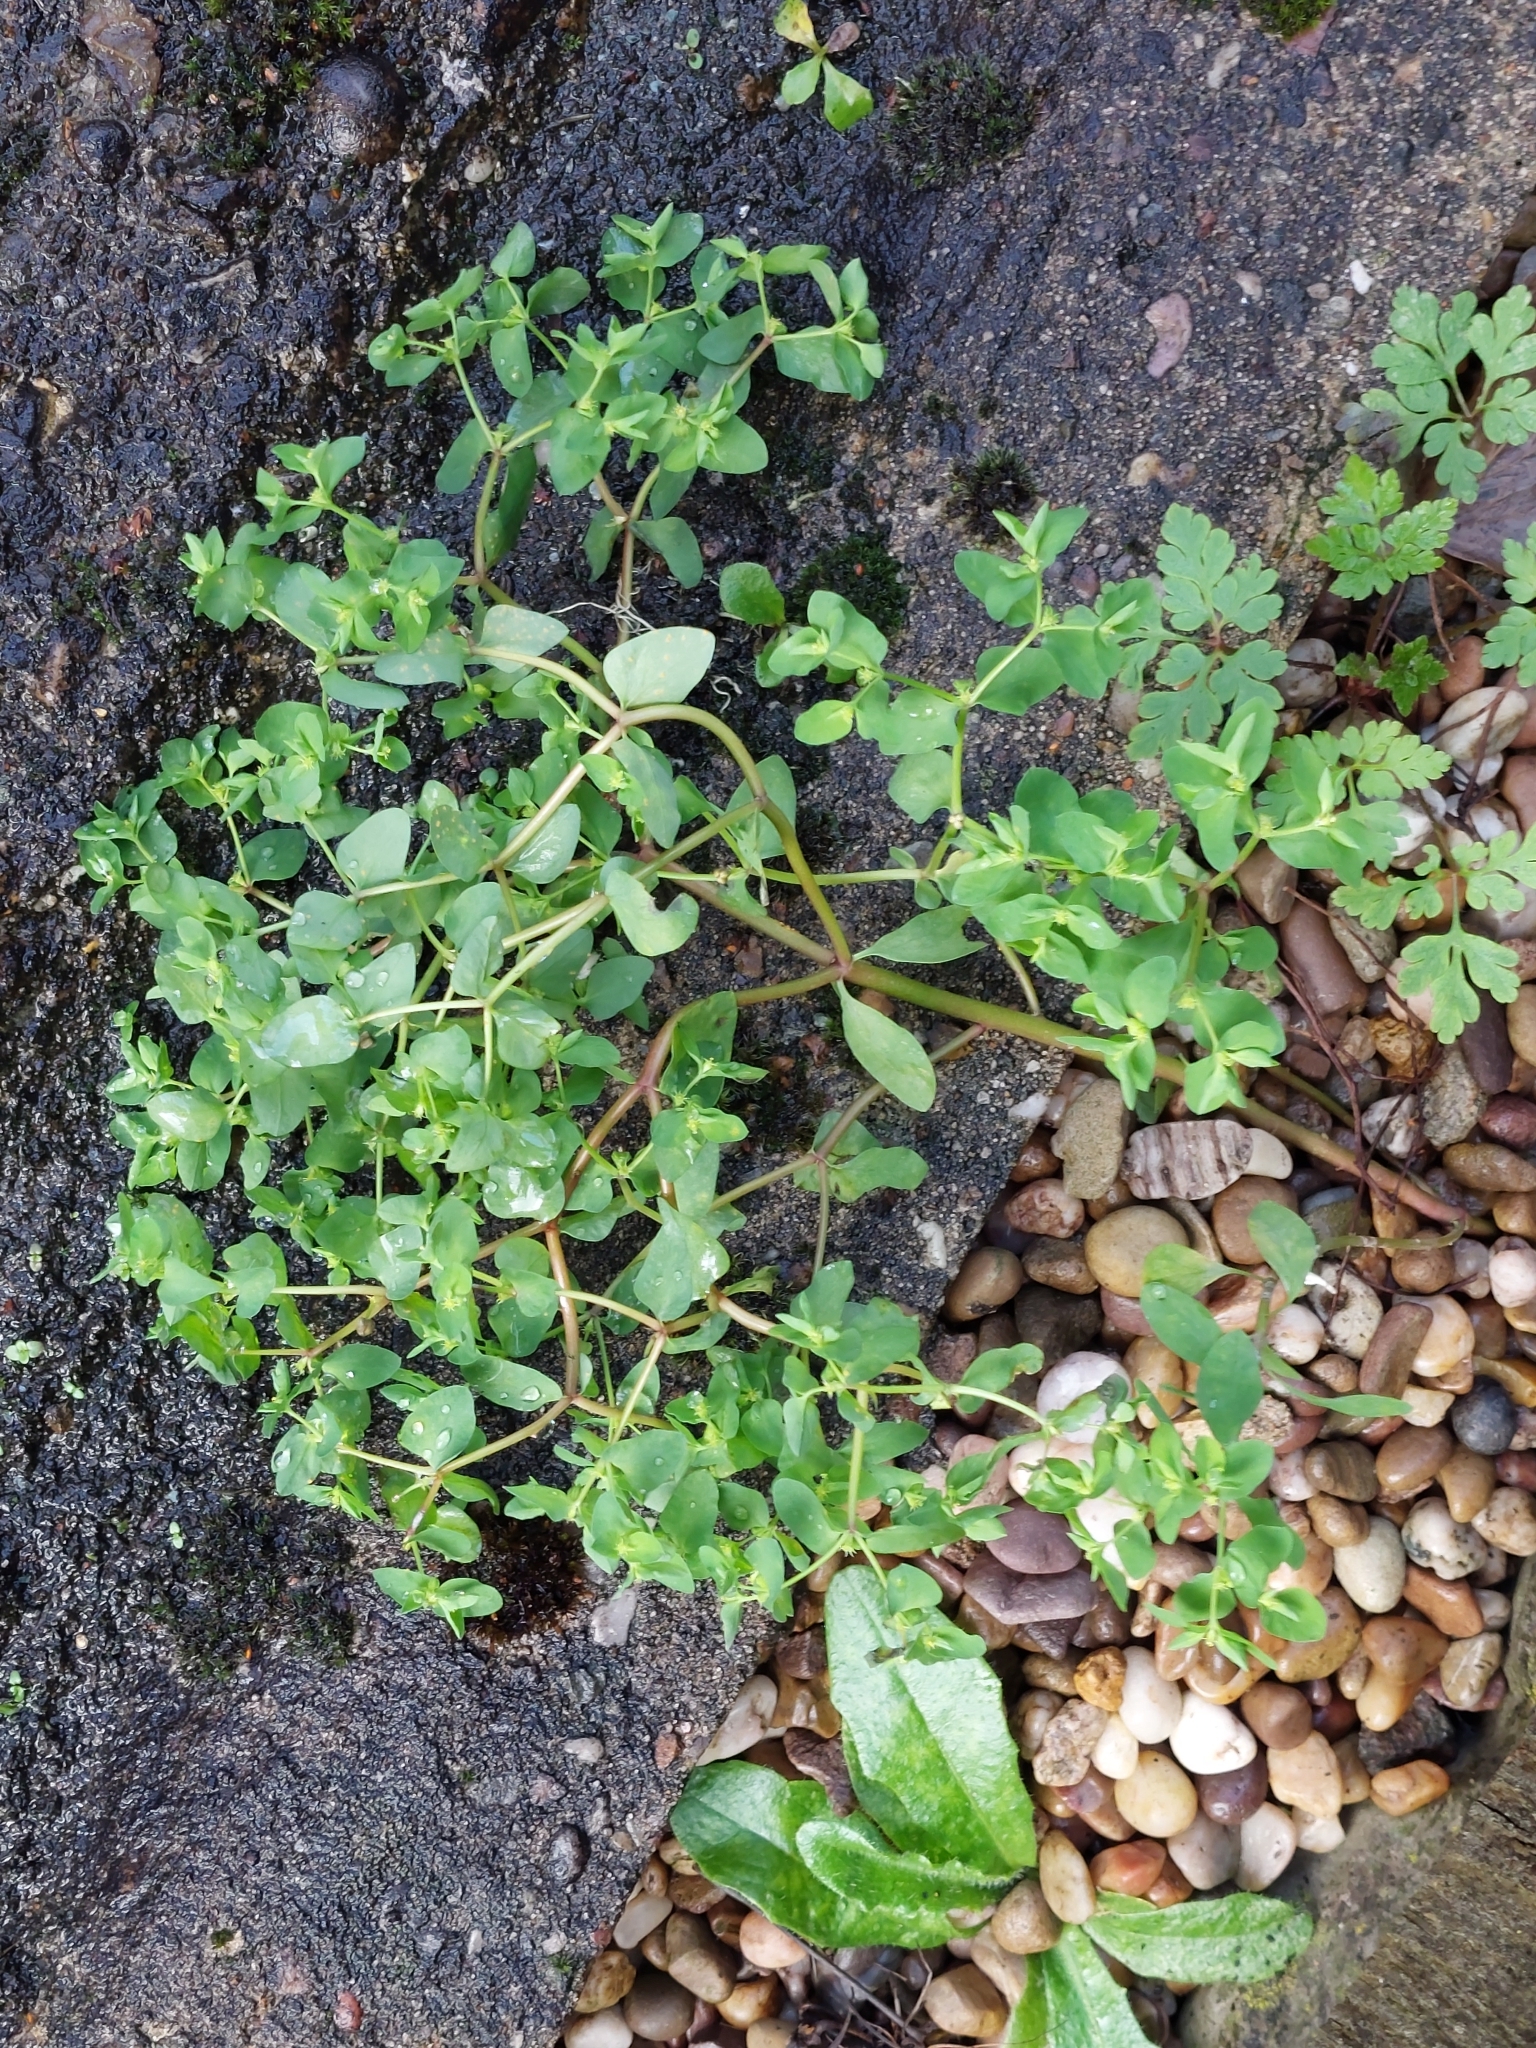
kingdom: Plantae
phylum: Tracheophyta
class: Magnoliopsida
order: Malpighiales
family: Euphorbiaceae
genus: Euphorbia
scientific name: Euphorbia peplus
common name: Petty spurge
